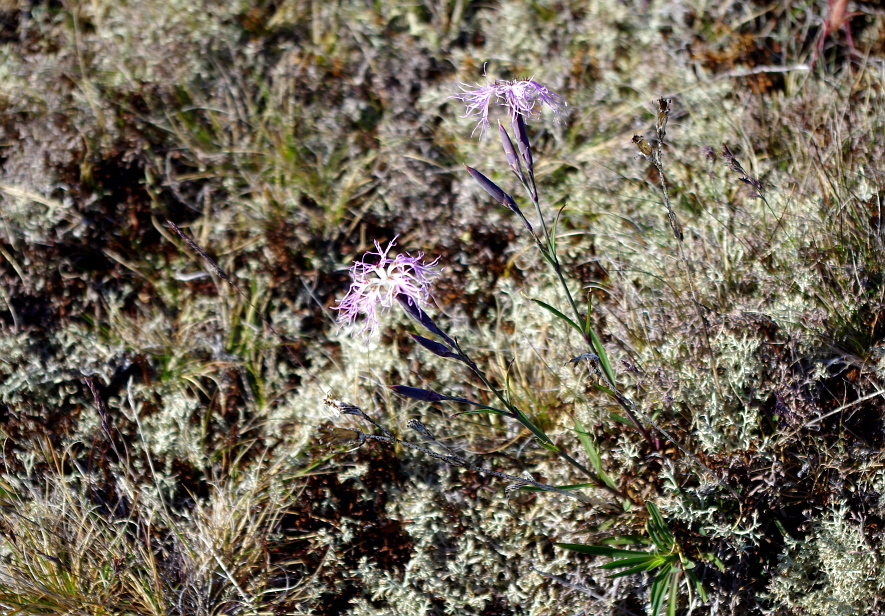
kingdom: Plantae
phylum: Tracheophyta
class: Magnoliopsida
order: Caryophyllales
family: Caryophyllaceae
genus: Dianthus
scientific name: Dianthus superbus
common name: Fringed pink
